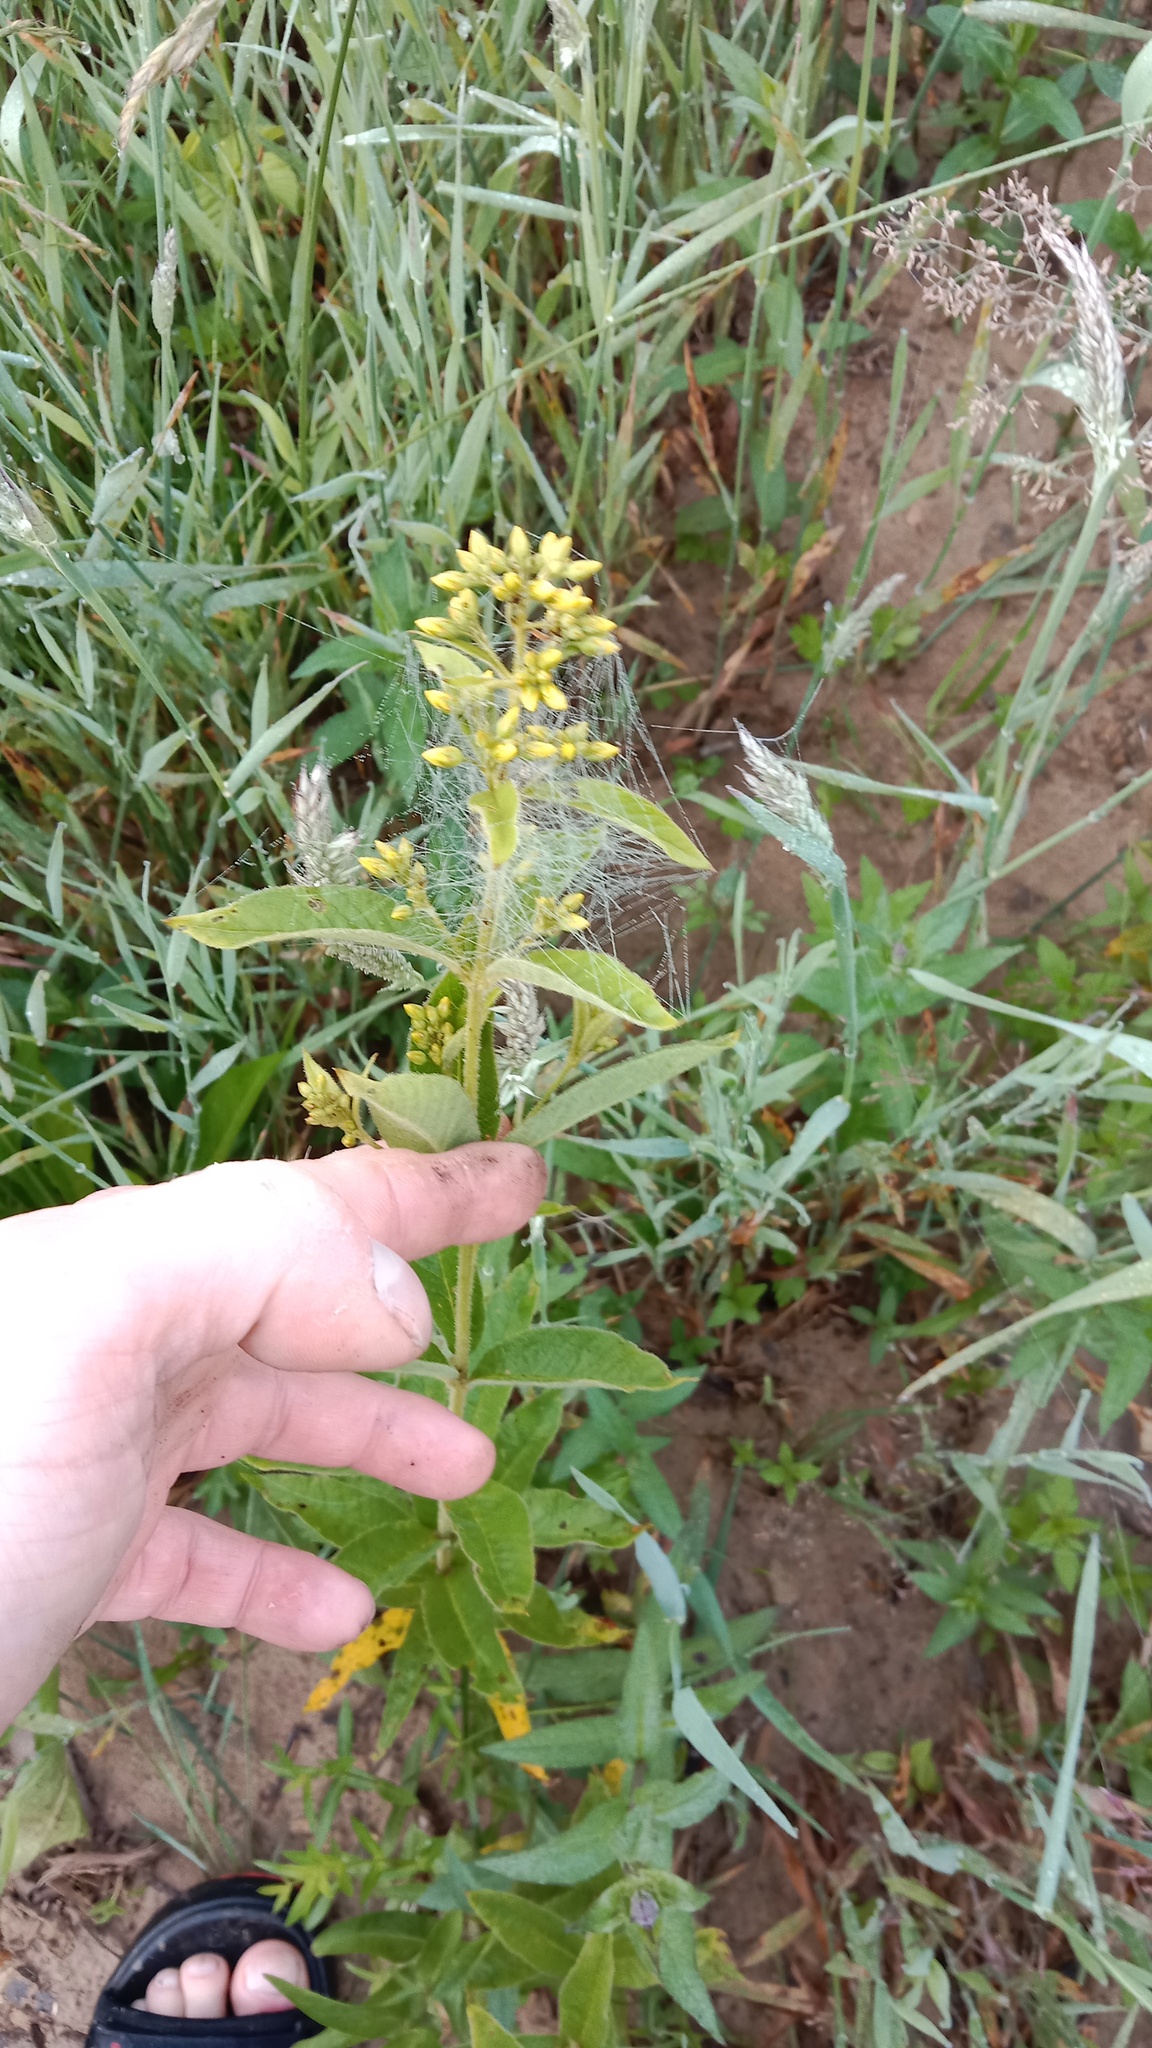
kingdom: Plantae
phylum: Tracheophyta
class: Magnoliopsida
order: Ericales
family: Primulaceae
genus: Lysimachia
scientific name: Lysimachia vulgaris
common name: Yellow loosestrife
